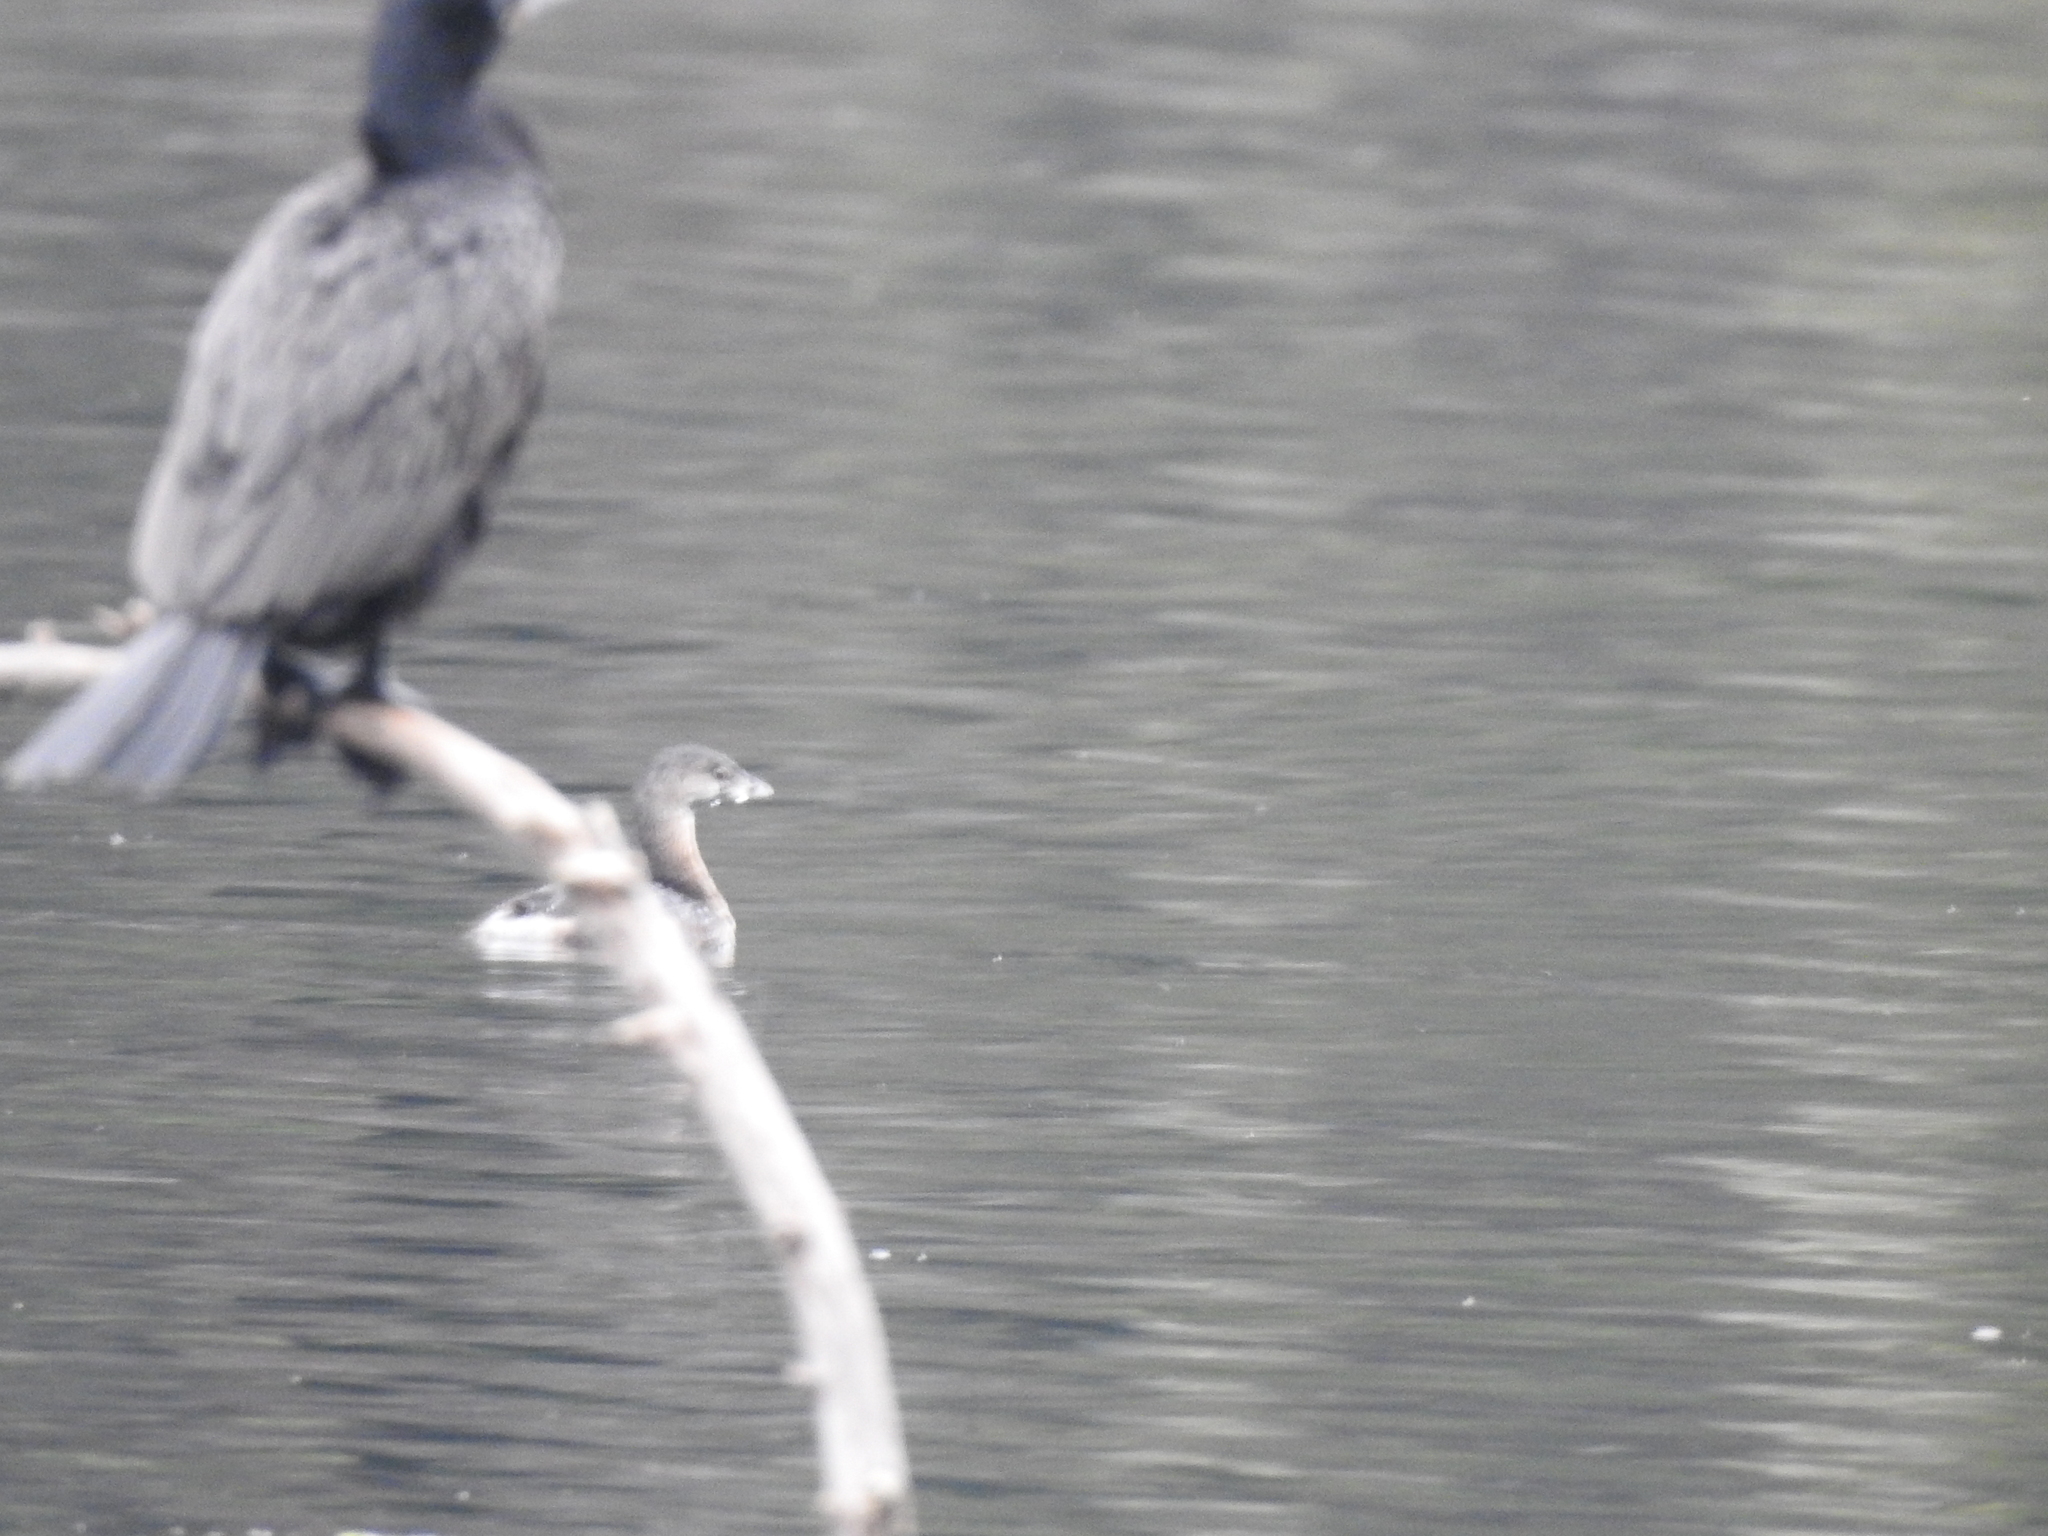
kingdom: Animalia
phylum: Chordata
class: Aves
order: Podicipediformes
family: Podicipedidae
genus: Podilymbus
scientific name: Podilymbus podiceps
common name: Pied-billed grebe
